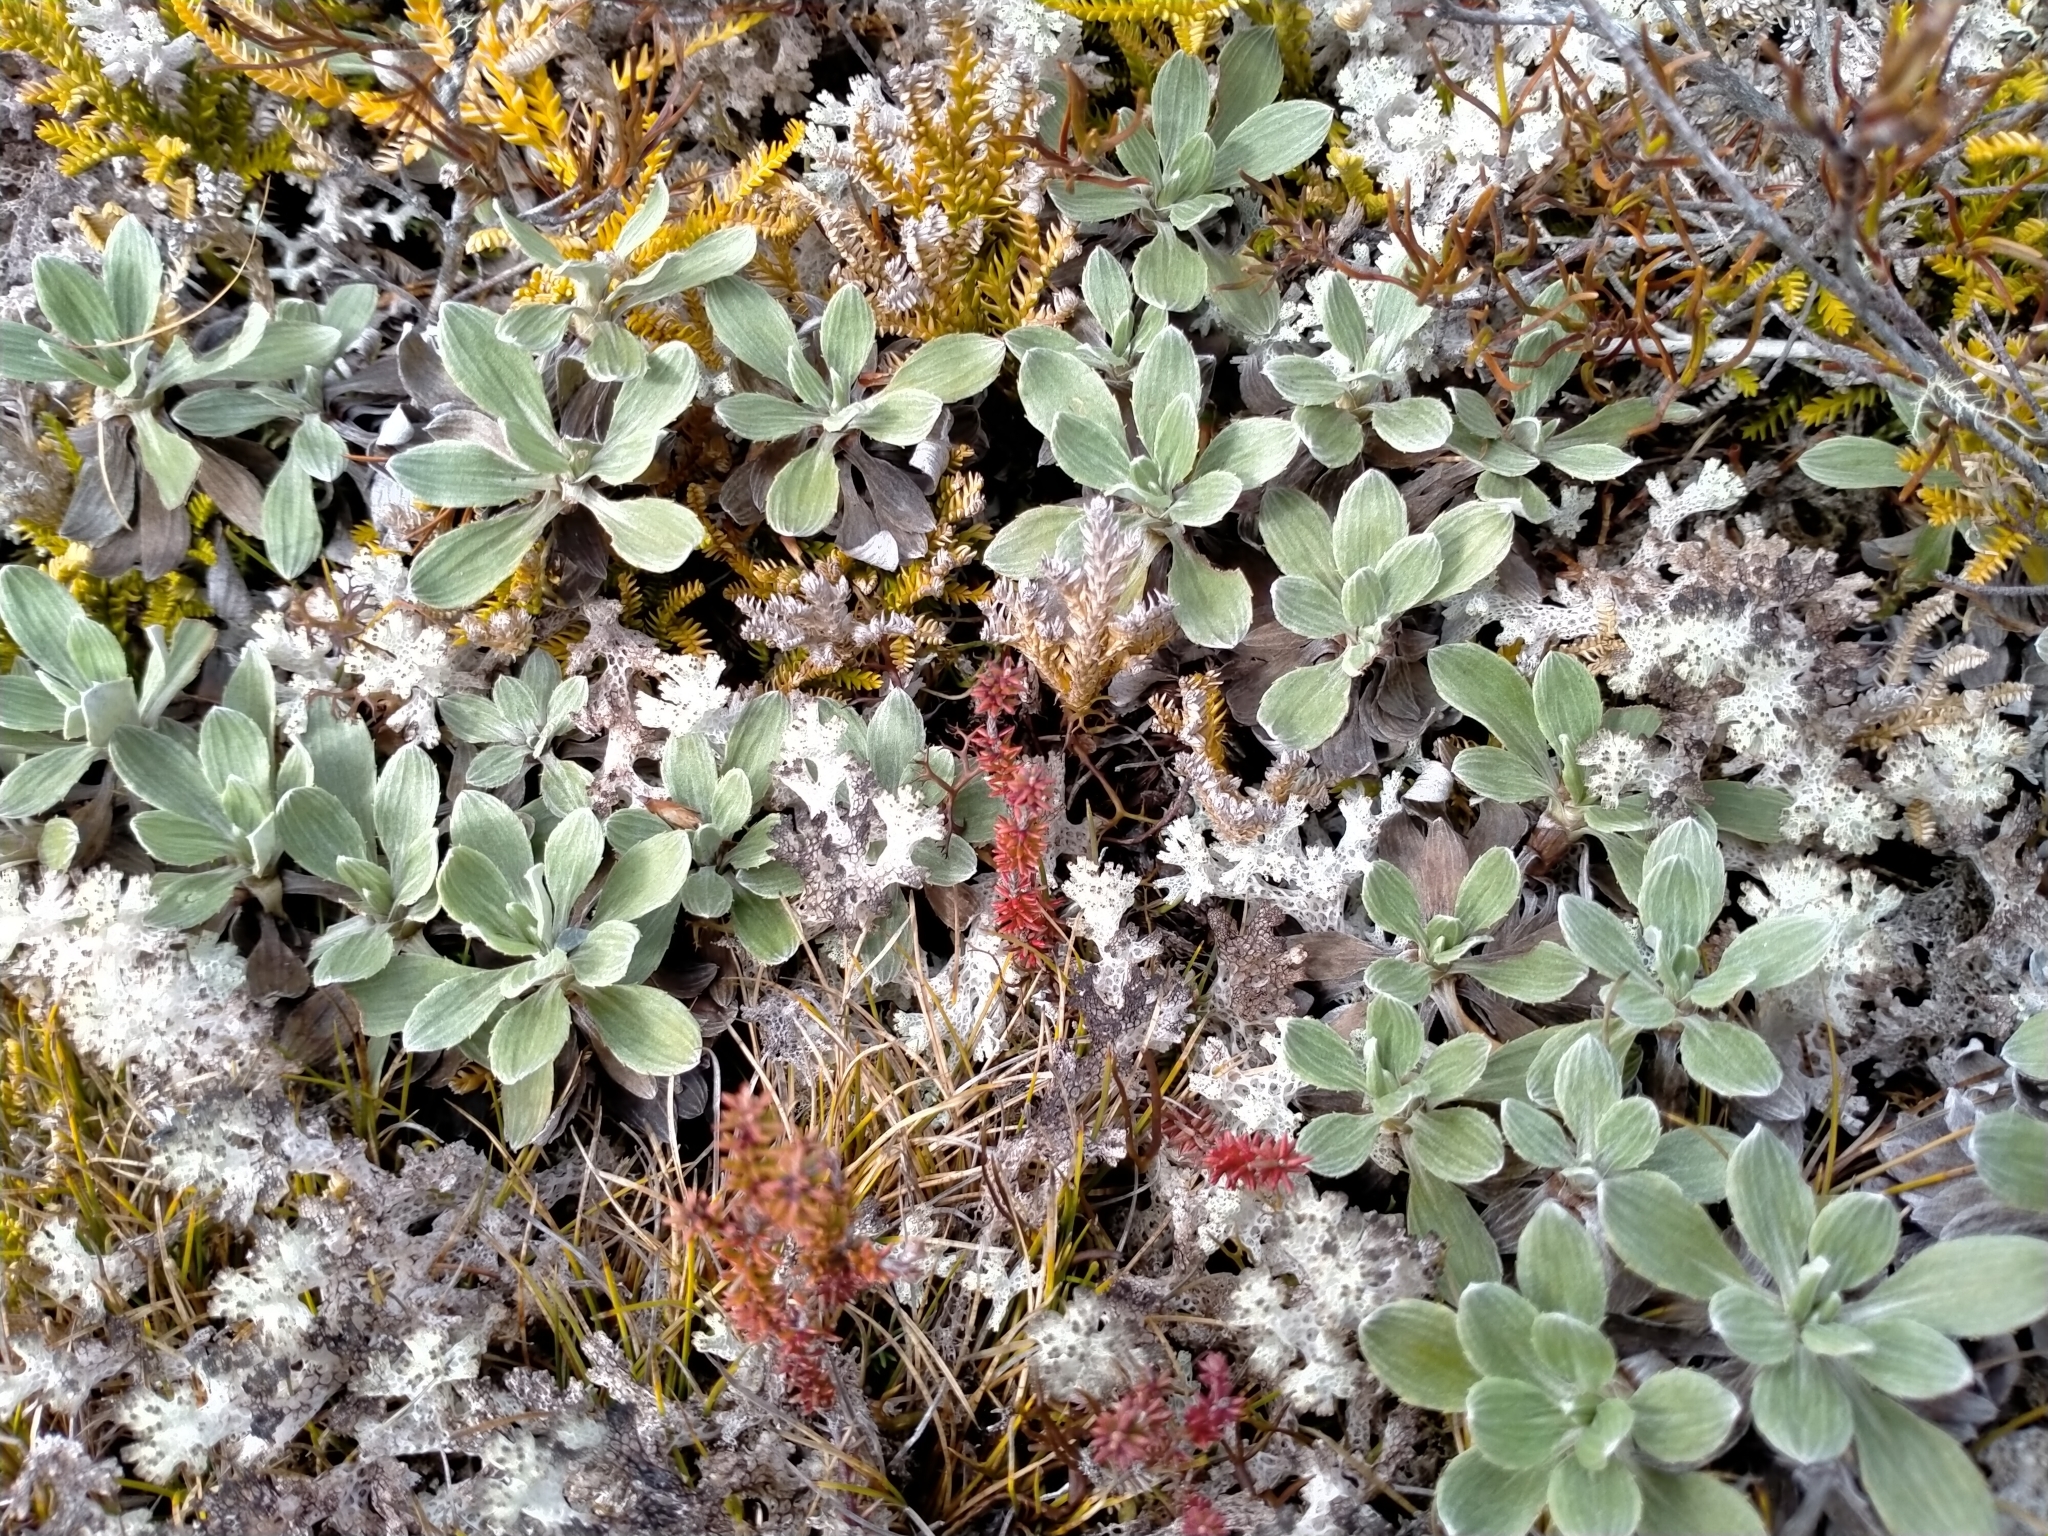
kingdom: Plantae
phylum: Tracheophyta
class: Magnoliopsida
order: Asterales
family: Asteraceae
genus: Celmisia
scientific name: Celmisia discolor
